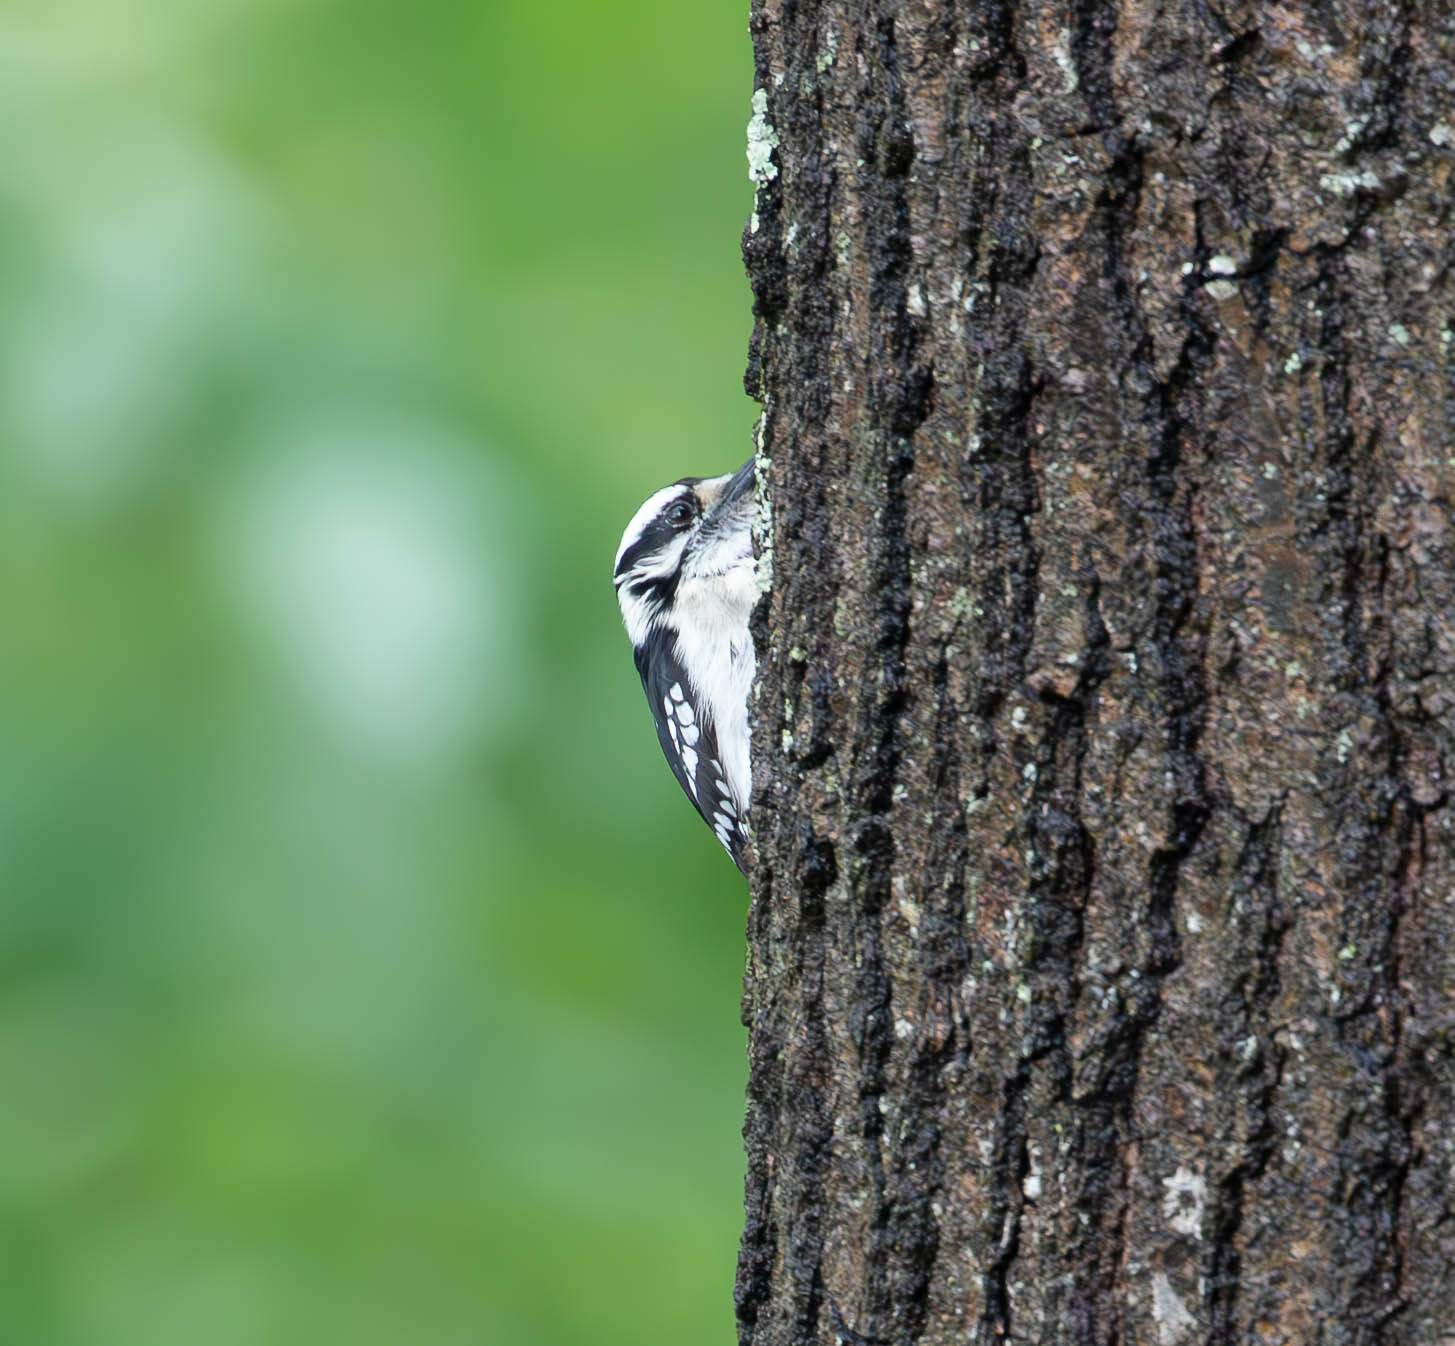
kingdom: Animalia
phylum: Chordata
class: Aves
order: Piciformes
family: Picidae
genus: Dryobates
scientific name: Dryobates pubescens
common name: Downy woodpecker
